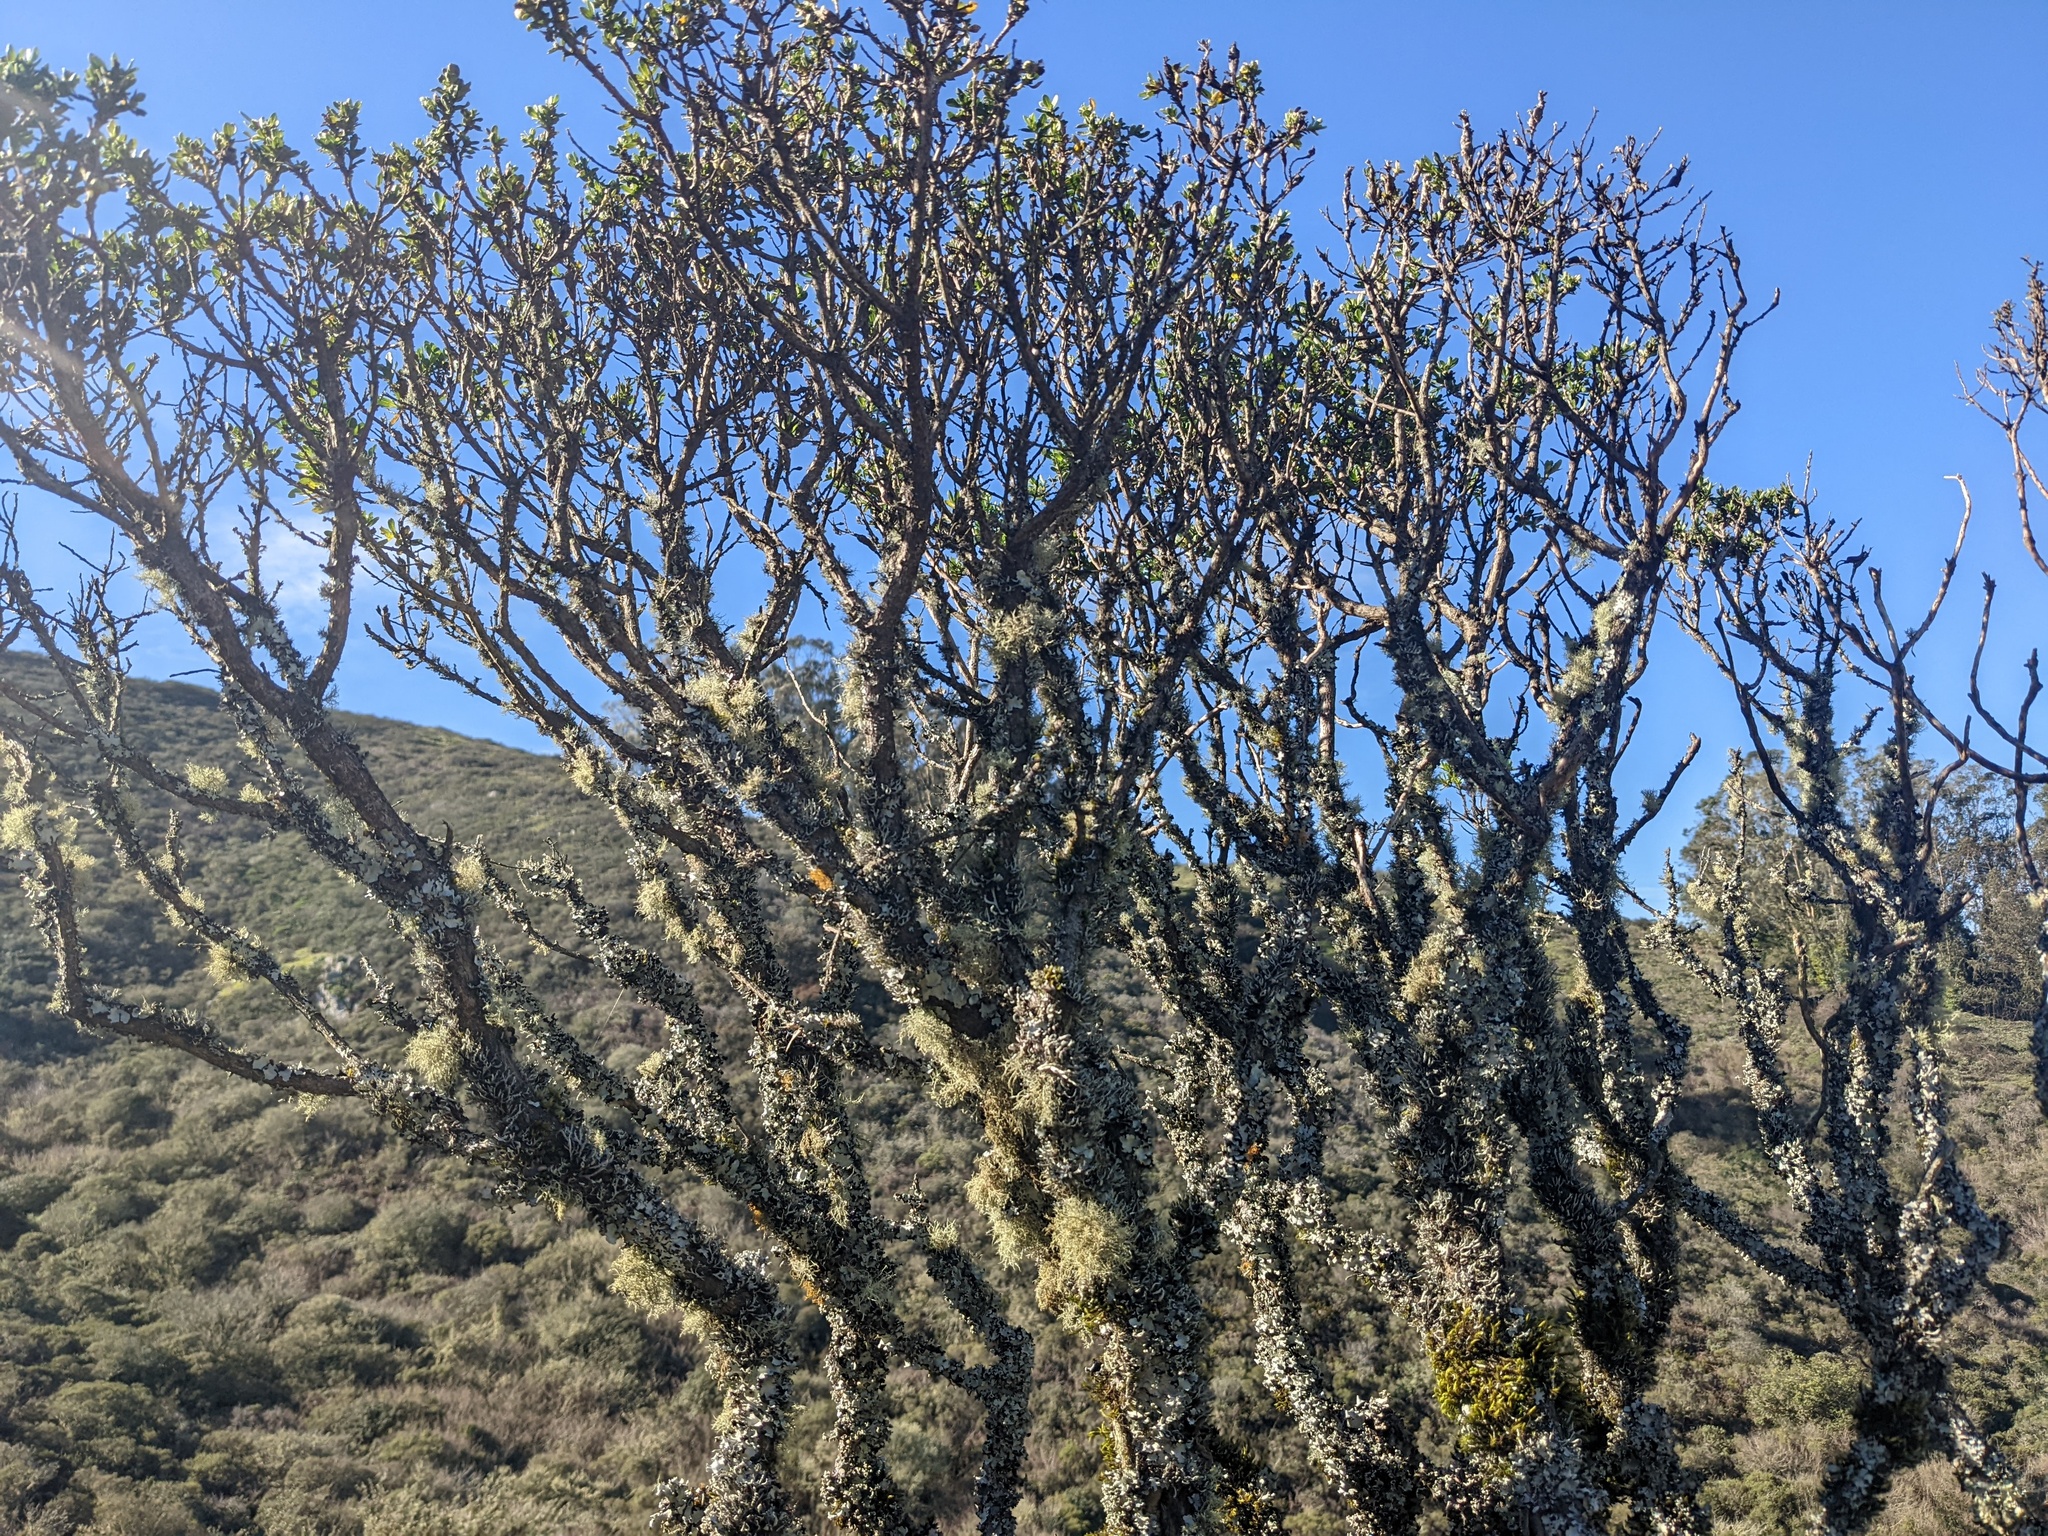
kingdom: Plantae
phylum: Tracheophyta
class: Magnoliopsida
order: Asterales
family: Asteraceae
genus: Baccharis
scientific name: Baccharis pilularis
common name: Coyotebrush
